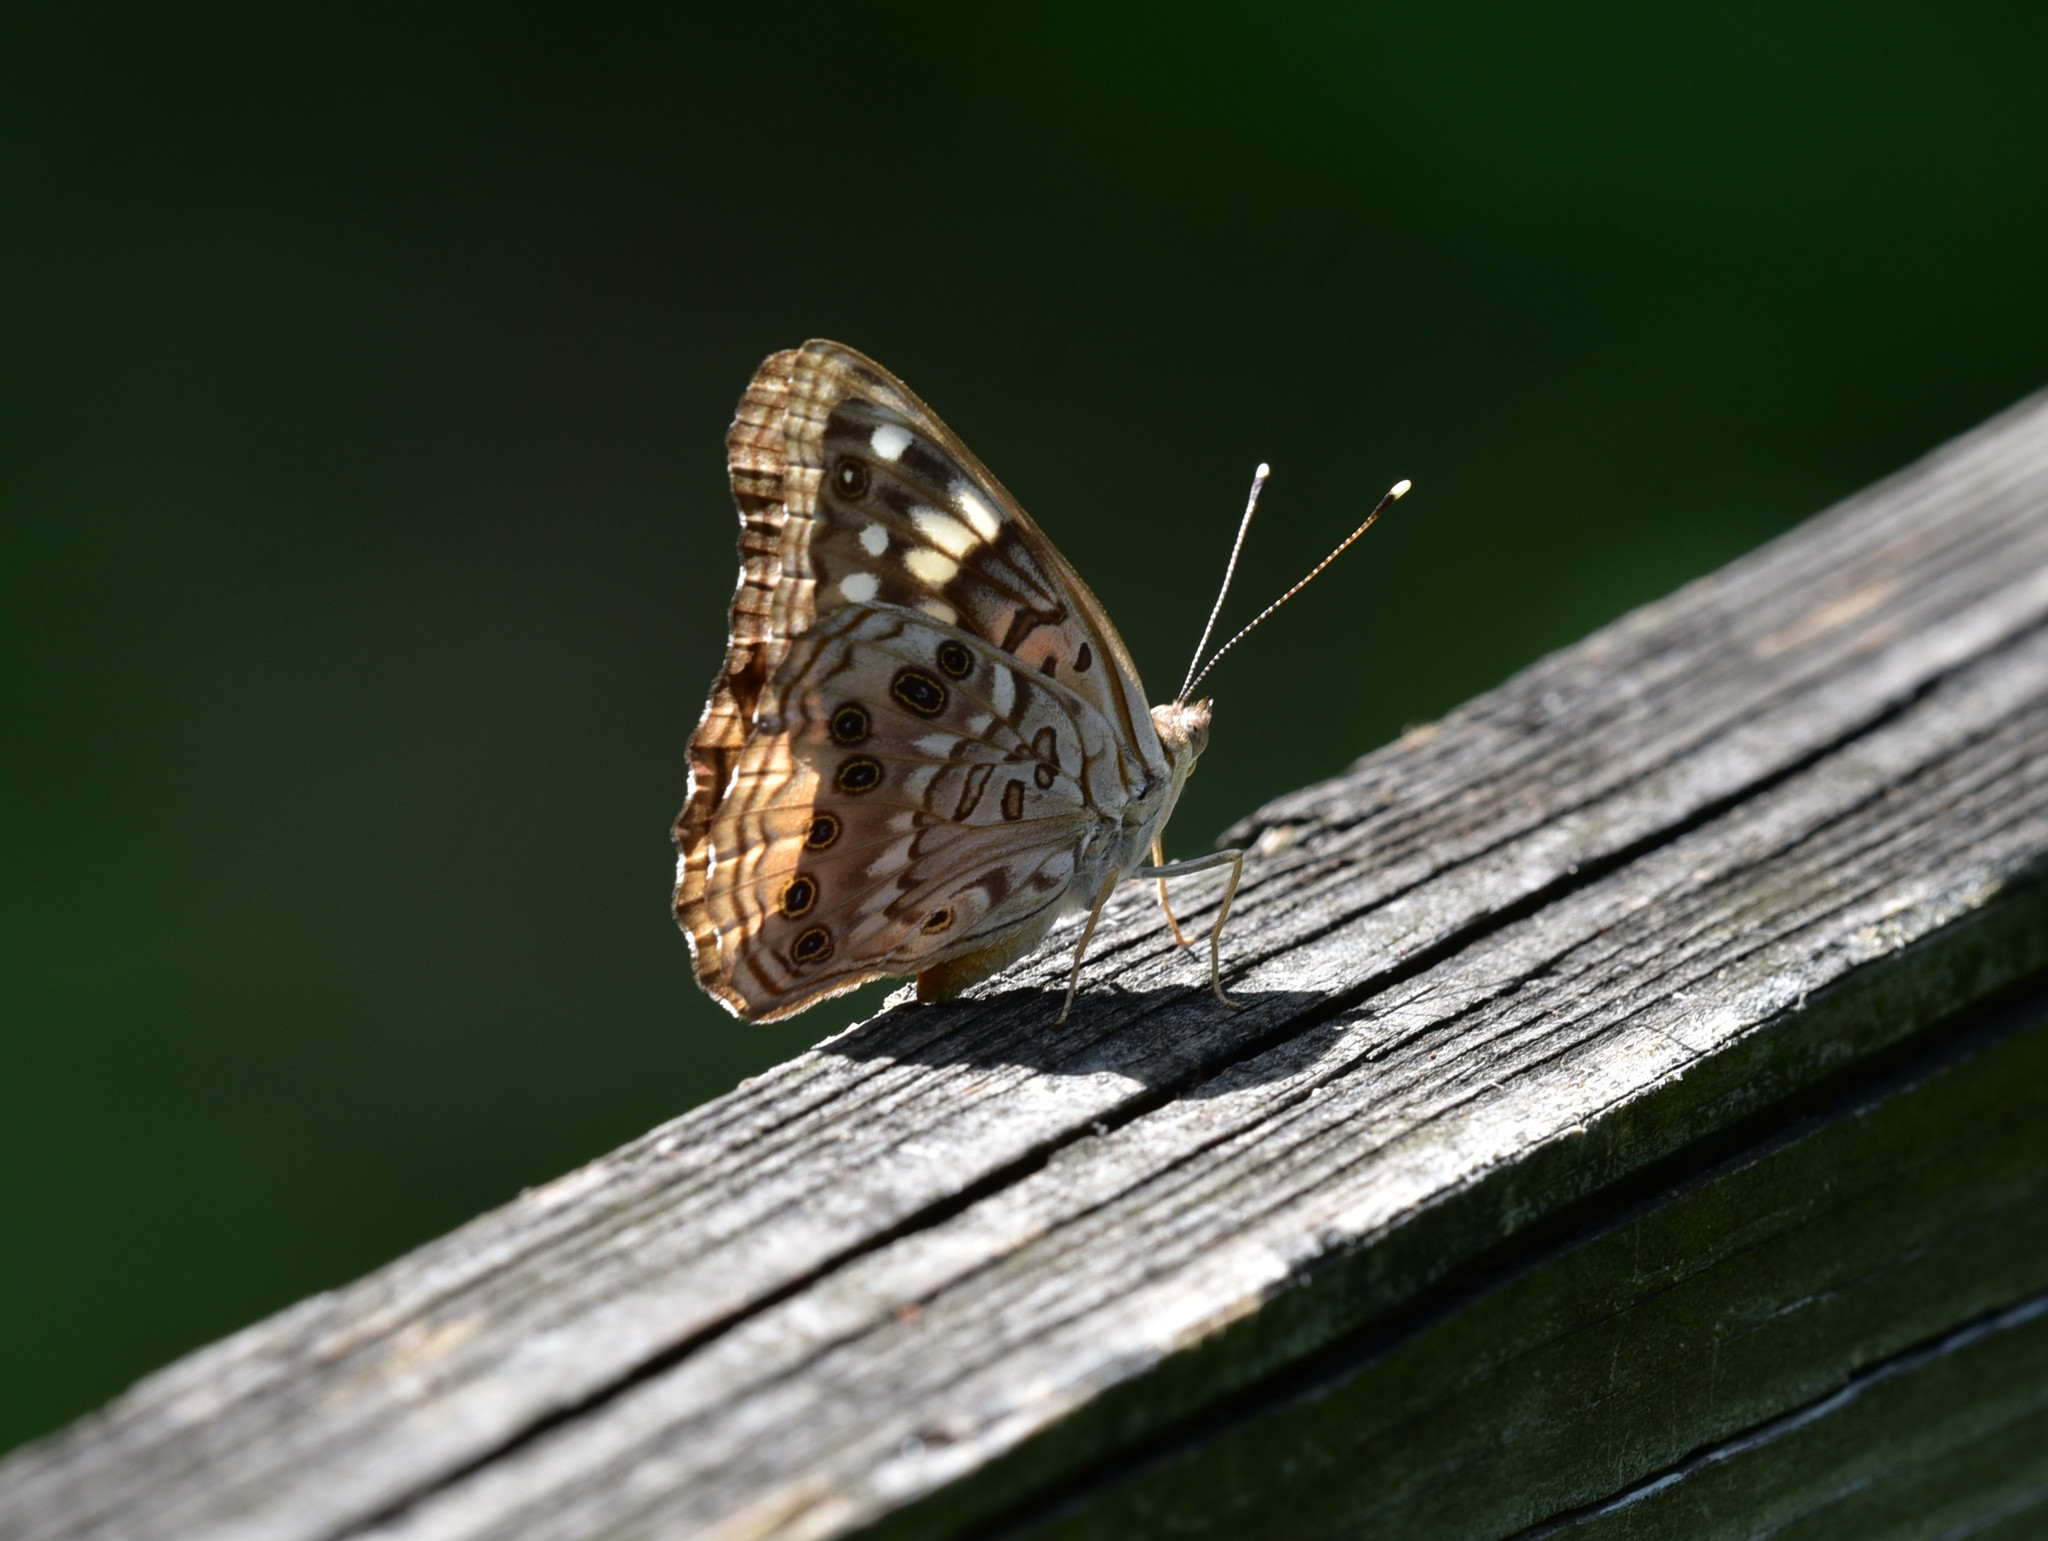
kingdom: Animalia
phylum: Arthropoda
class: Insecta
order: Lepidoptera
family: Nymphalidae
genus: Asterocampa
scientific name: Asterocampa celtis
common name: Hackberry emperor
